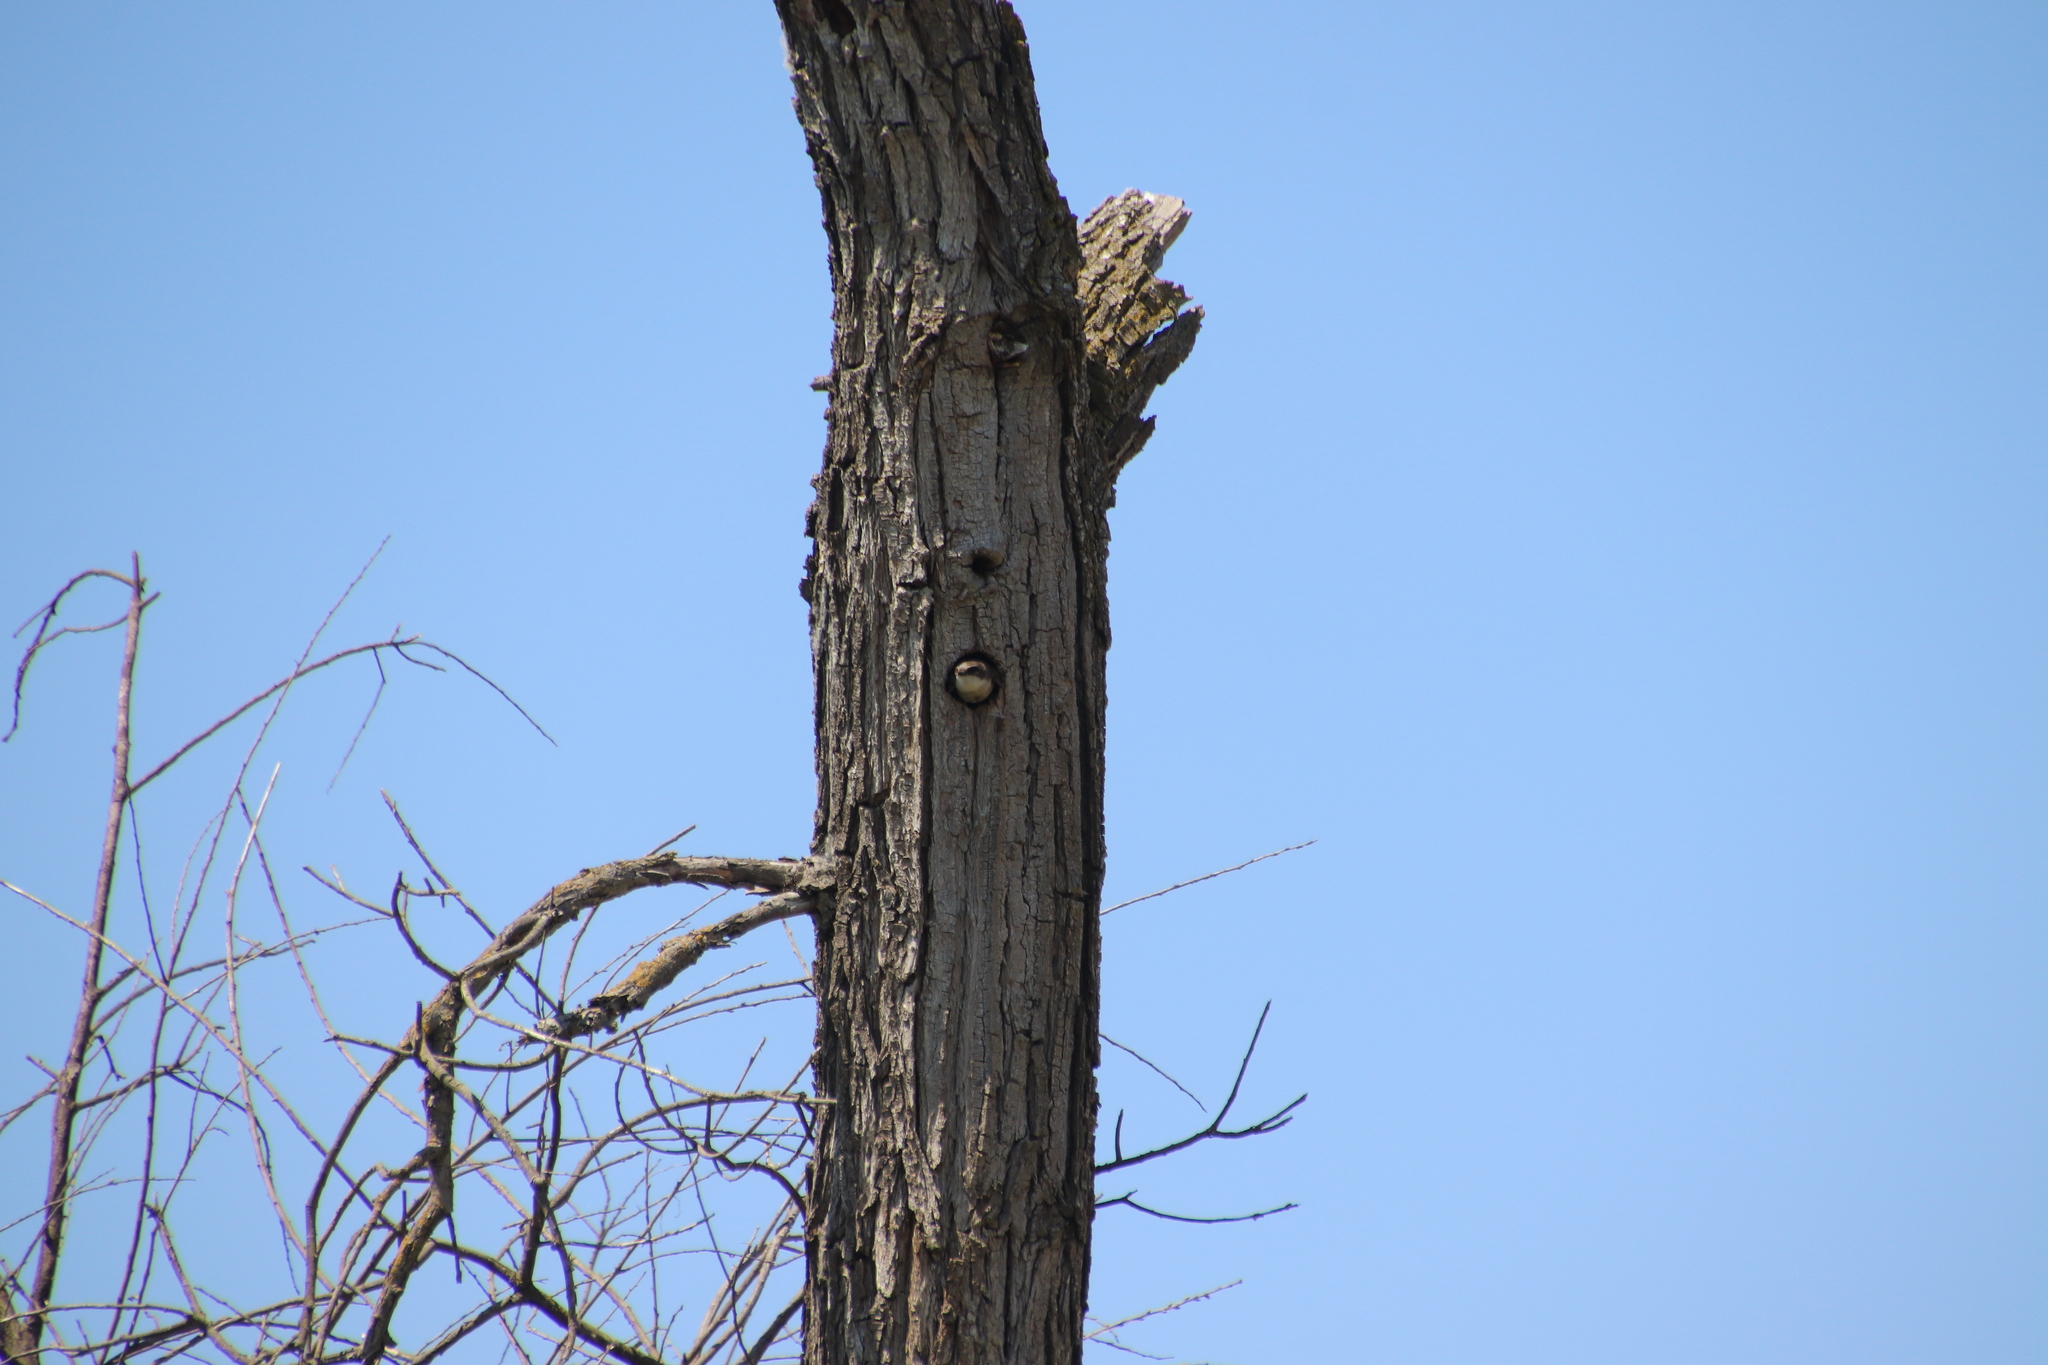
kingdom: Animalia
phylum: Chordata
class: Aves
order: Passeriformes
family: Hirundinidae
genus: Tachycineta
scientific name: Tachycineta bicolor
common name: Tree swallow
